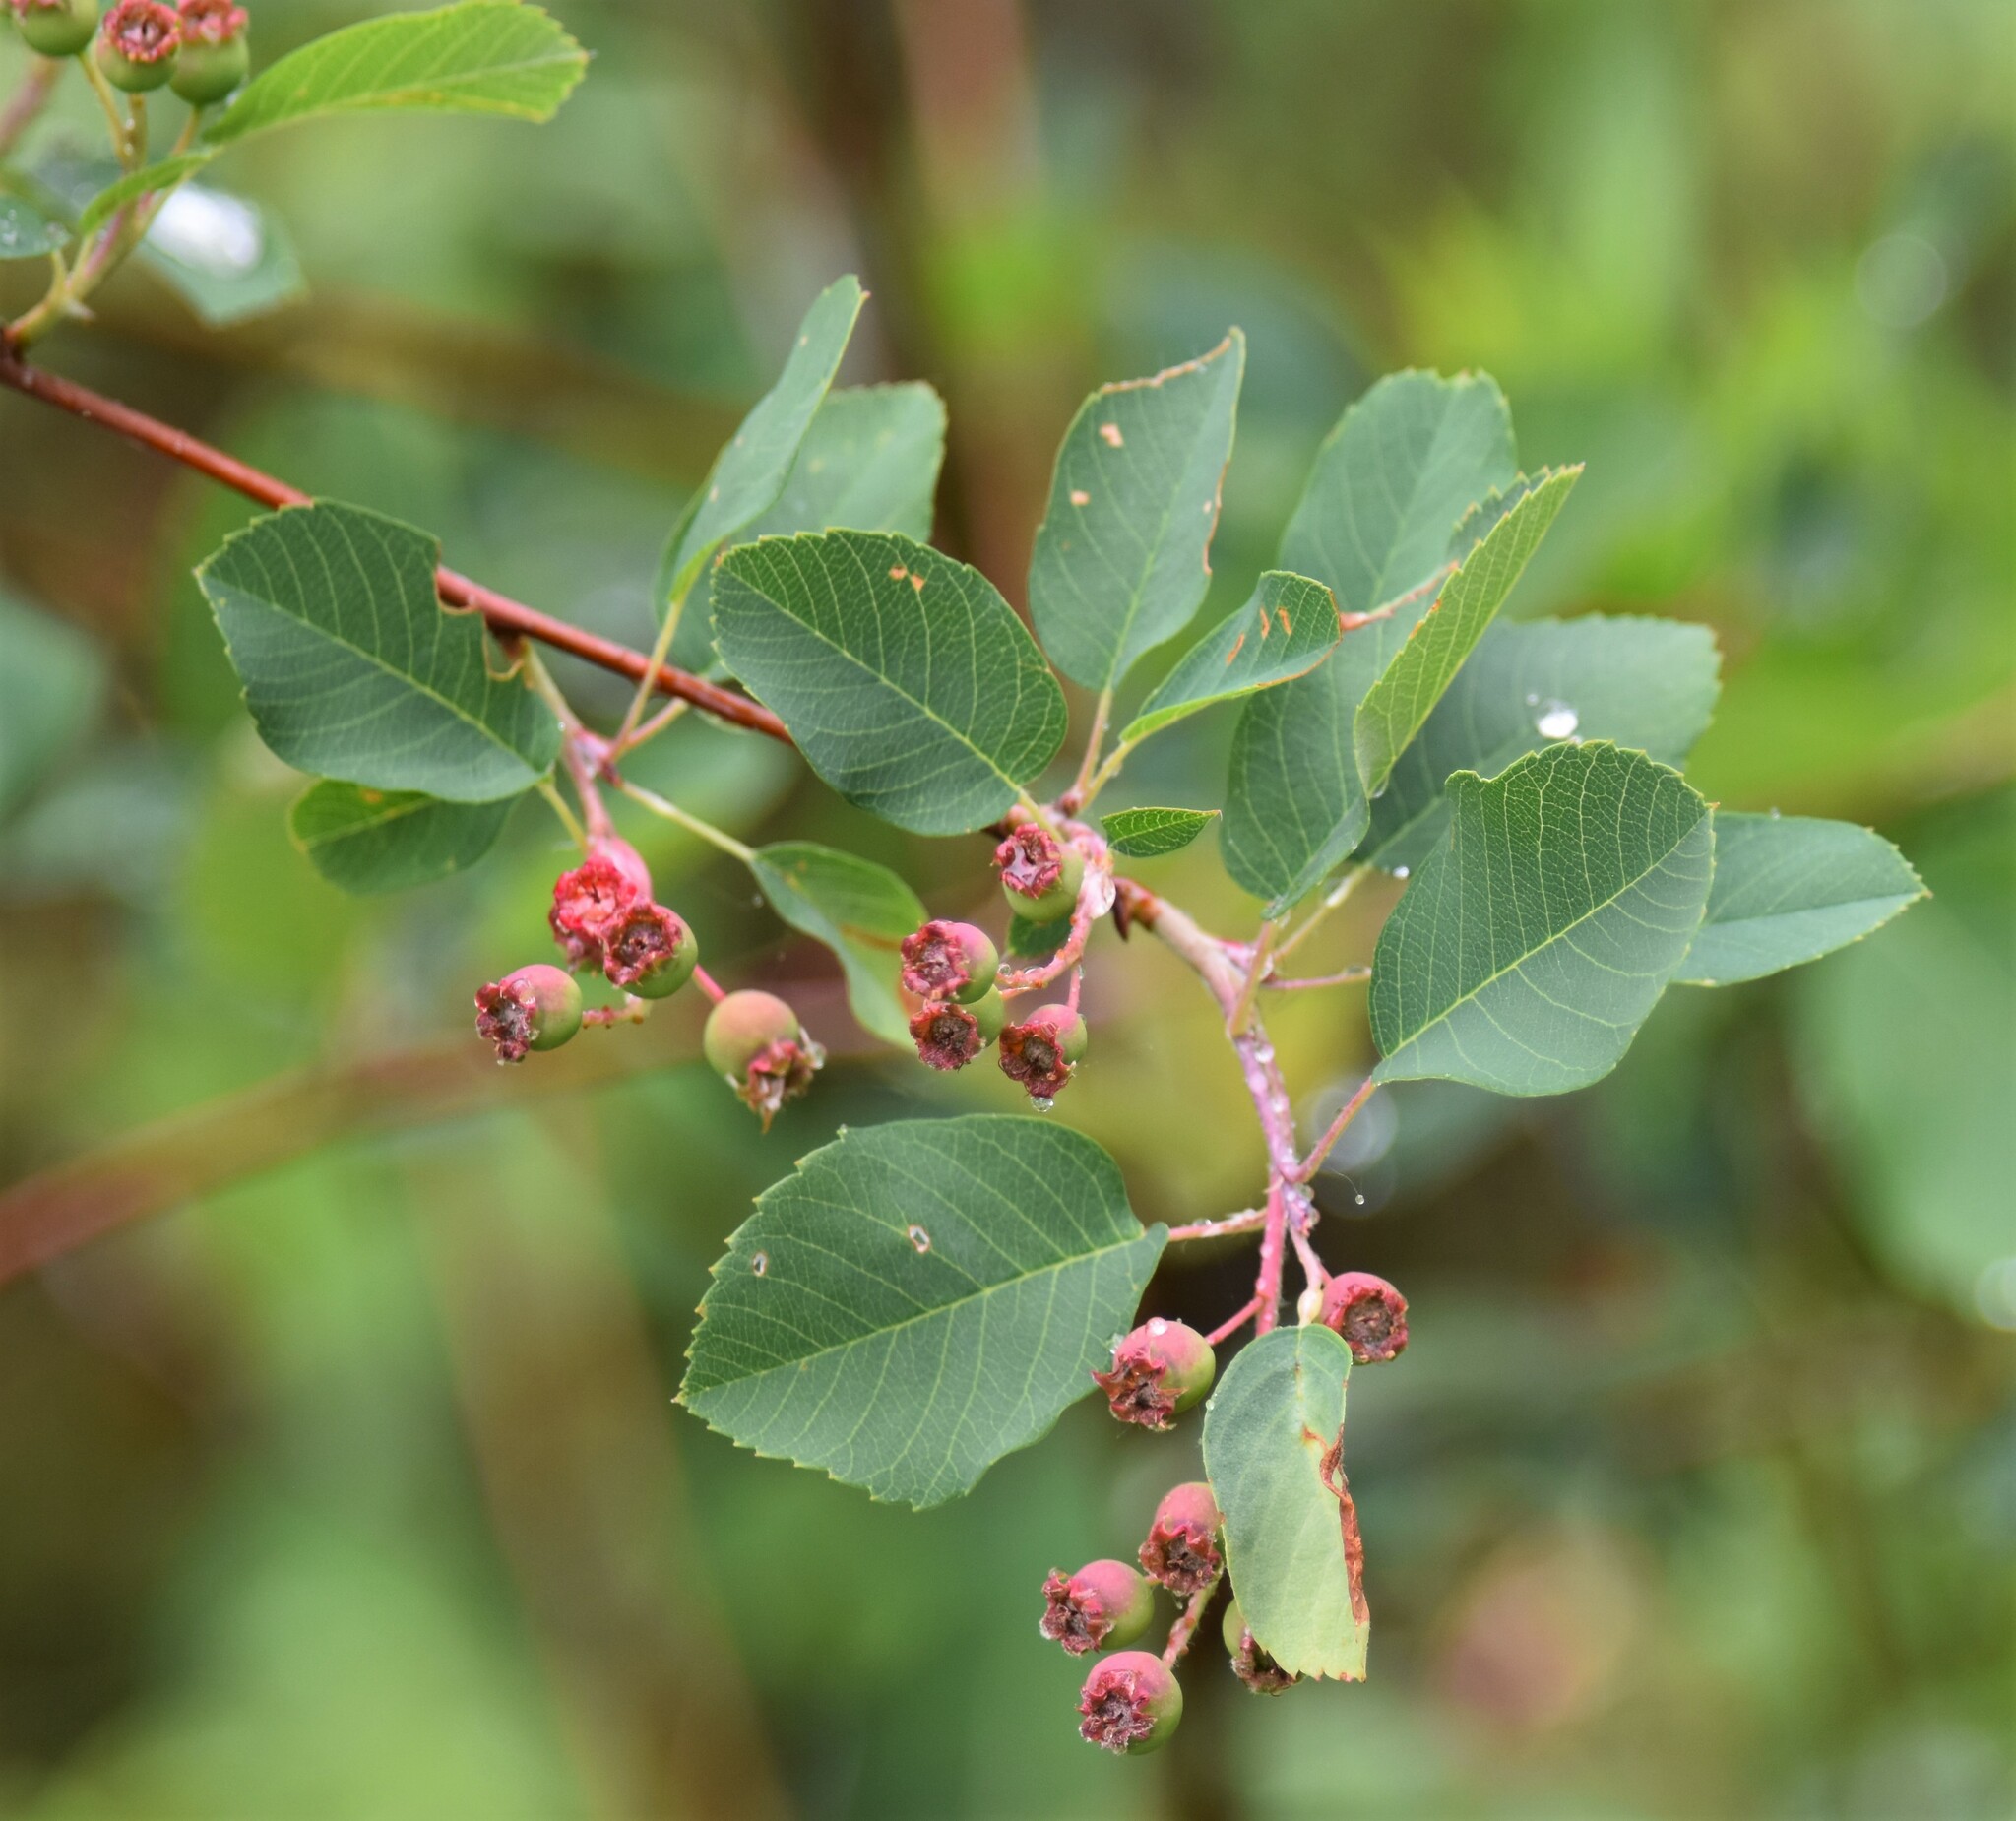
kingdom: Plantae
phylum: Tracheophyta
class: Magnoliopsida
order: Rosales
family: Rosaceae
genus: Amelanchier
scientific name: Amelanchier alnifolia
